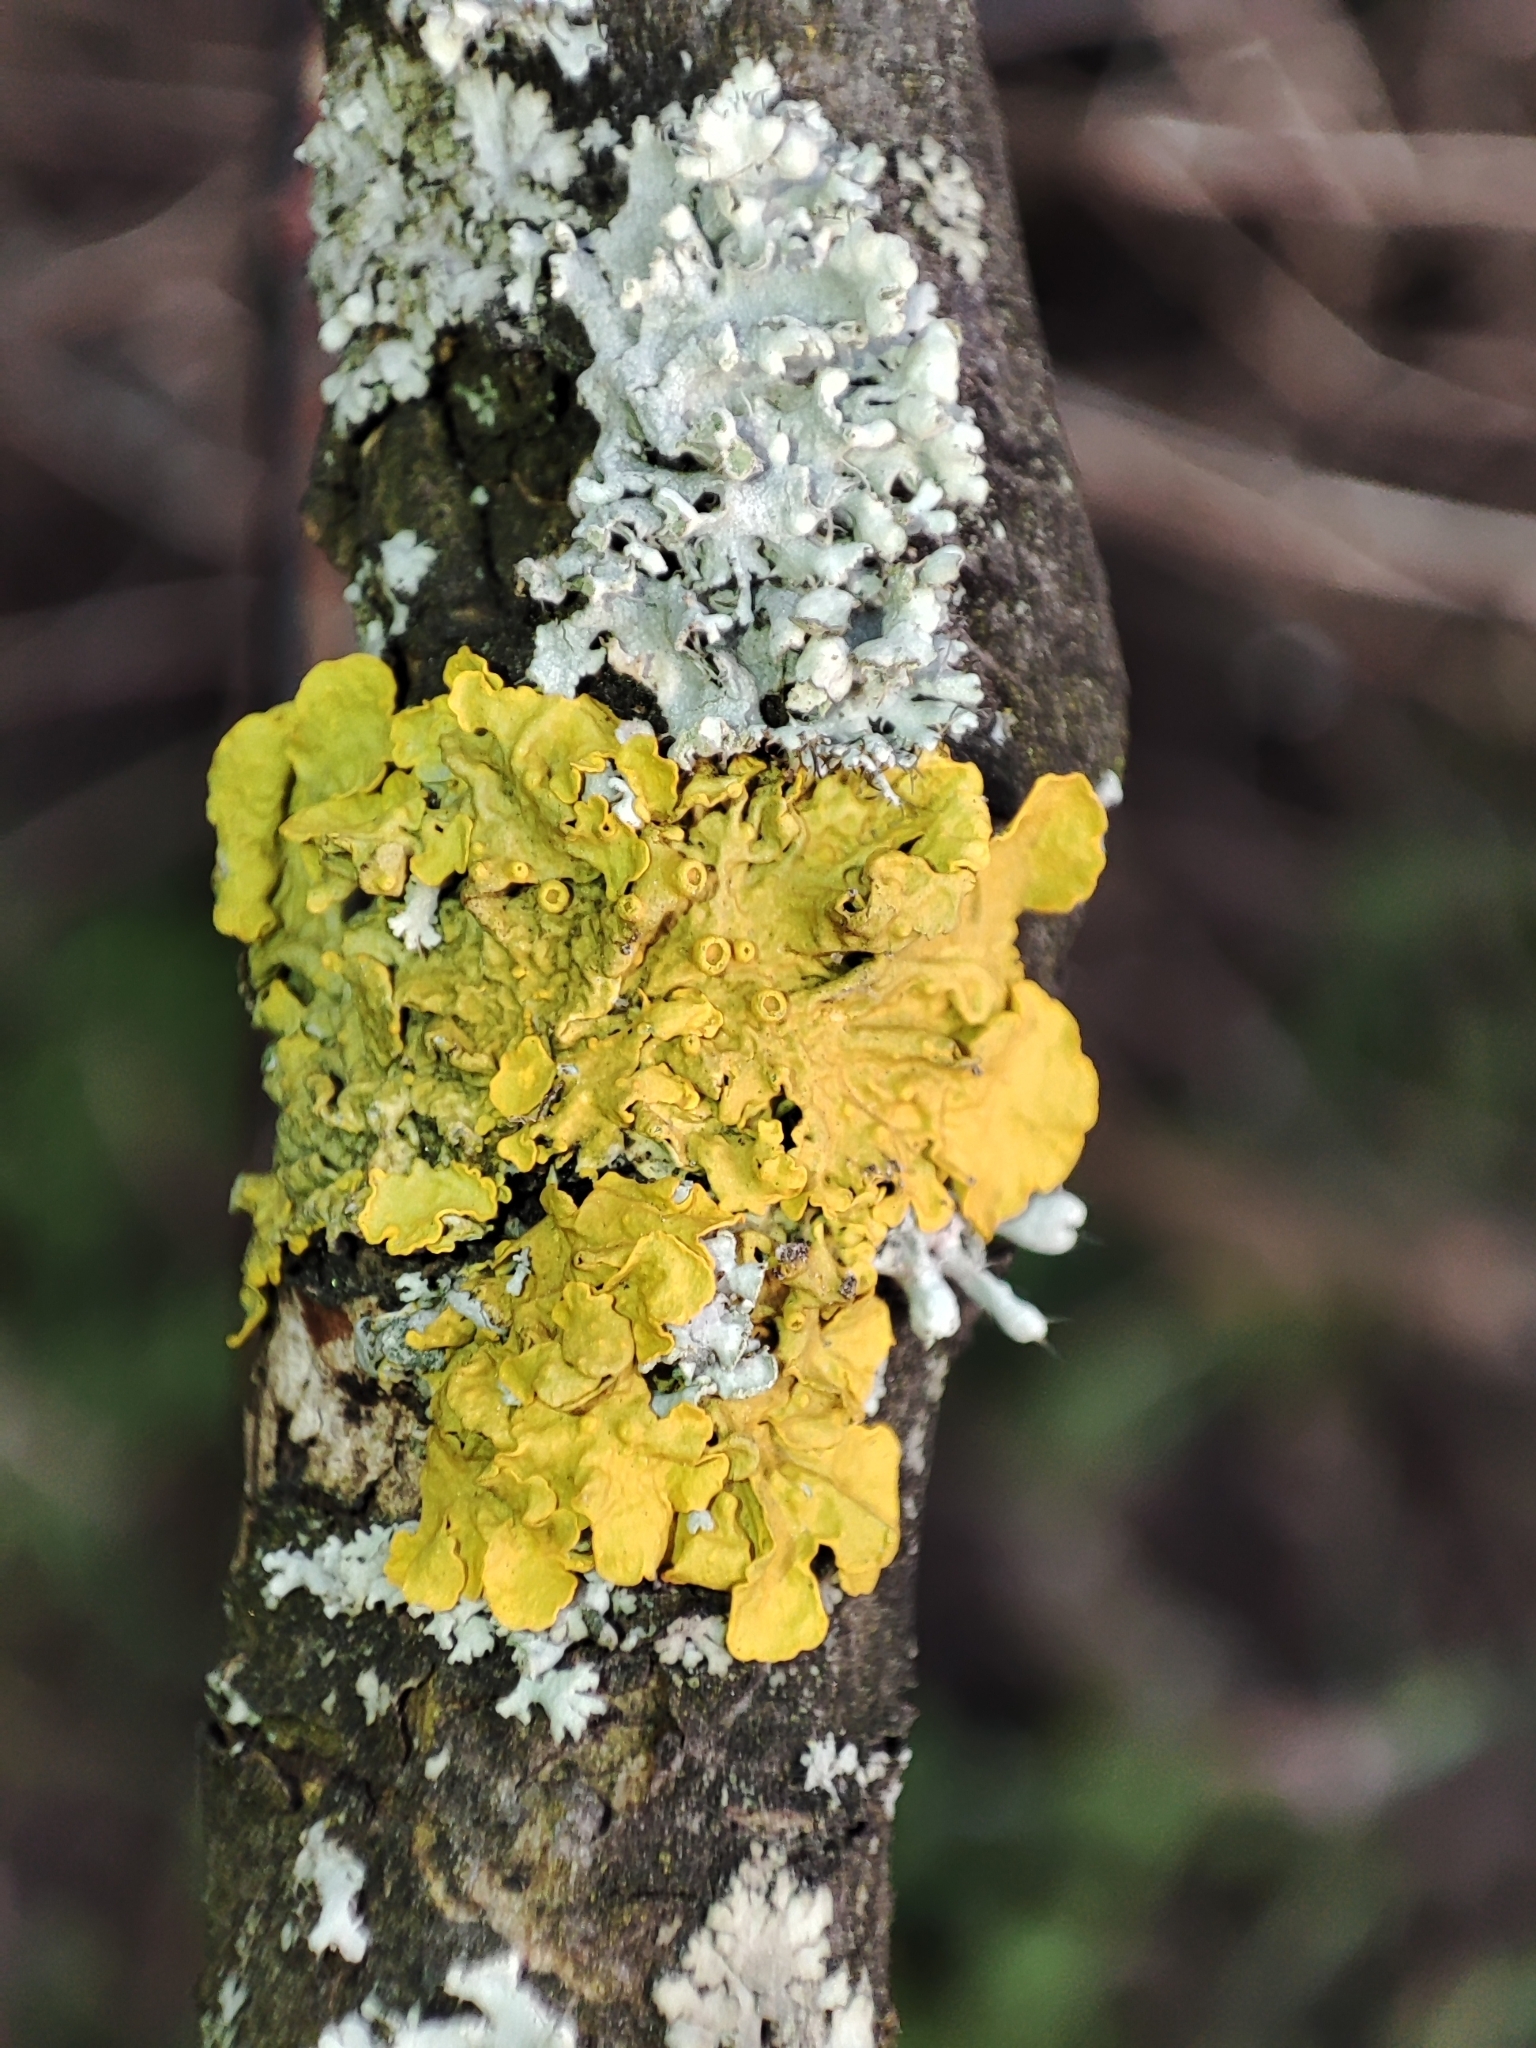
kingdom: Fungi
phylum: Ascomycota
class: Lecanoromycetes
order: Teloschistales
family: Teloschistaceae
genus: Xanthoria
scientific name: Xanthoria parietina
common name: Common orange lichen
